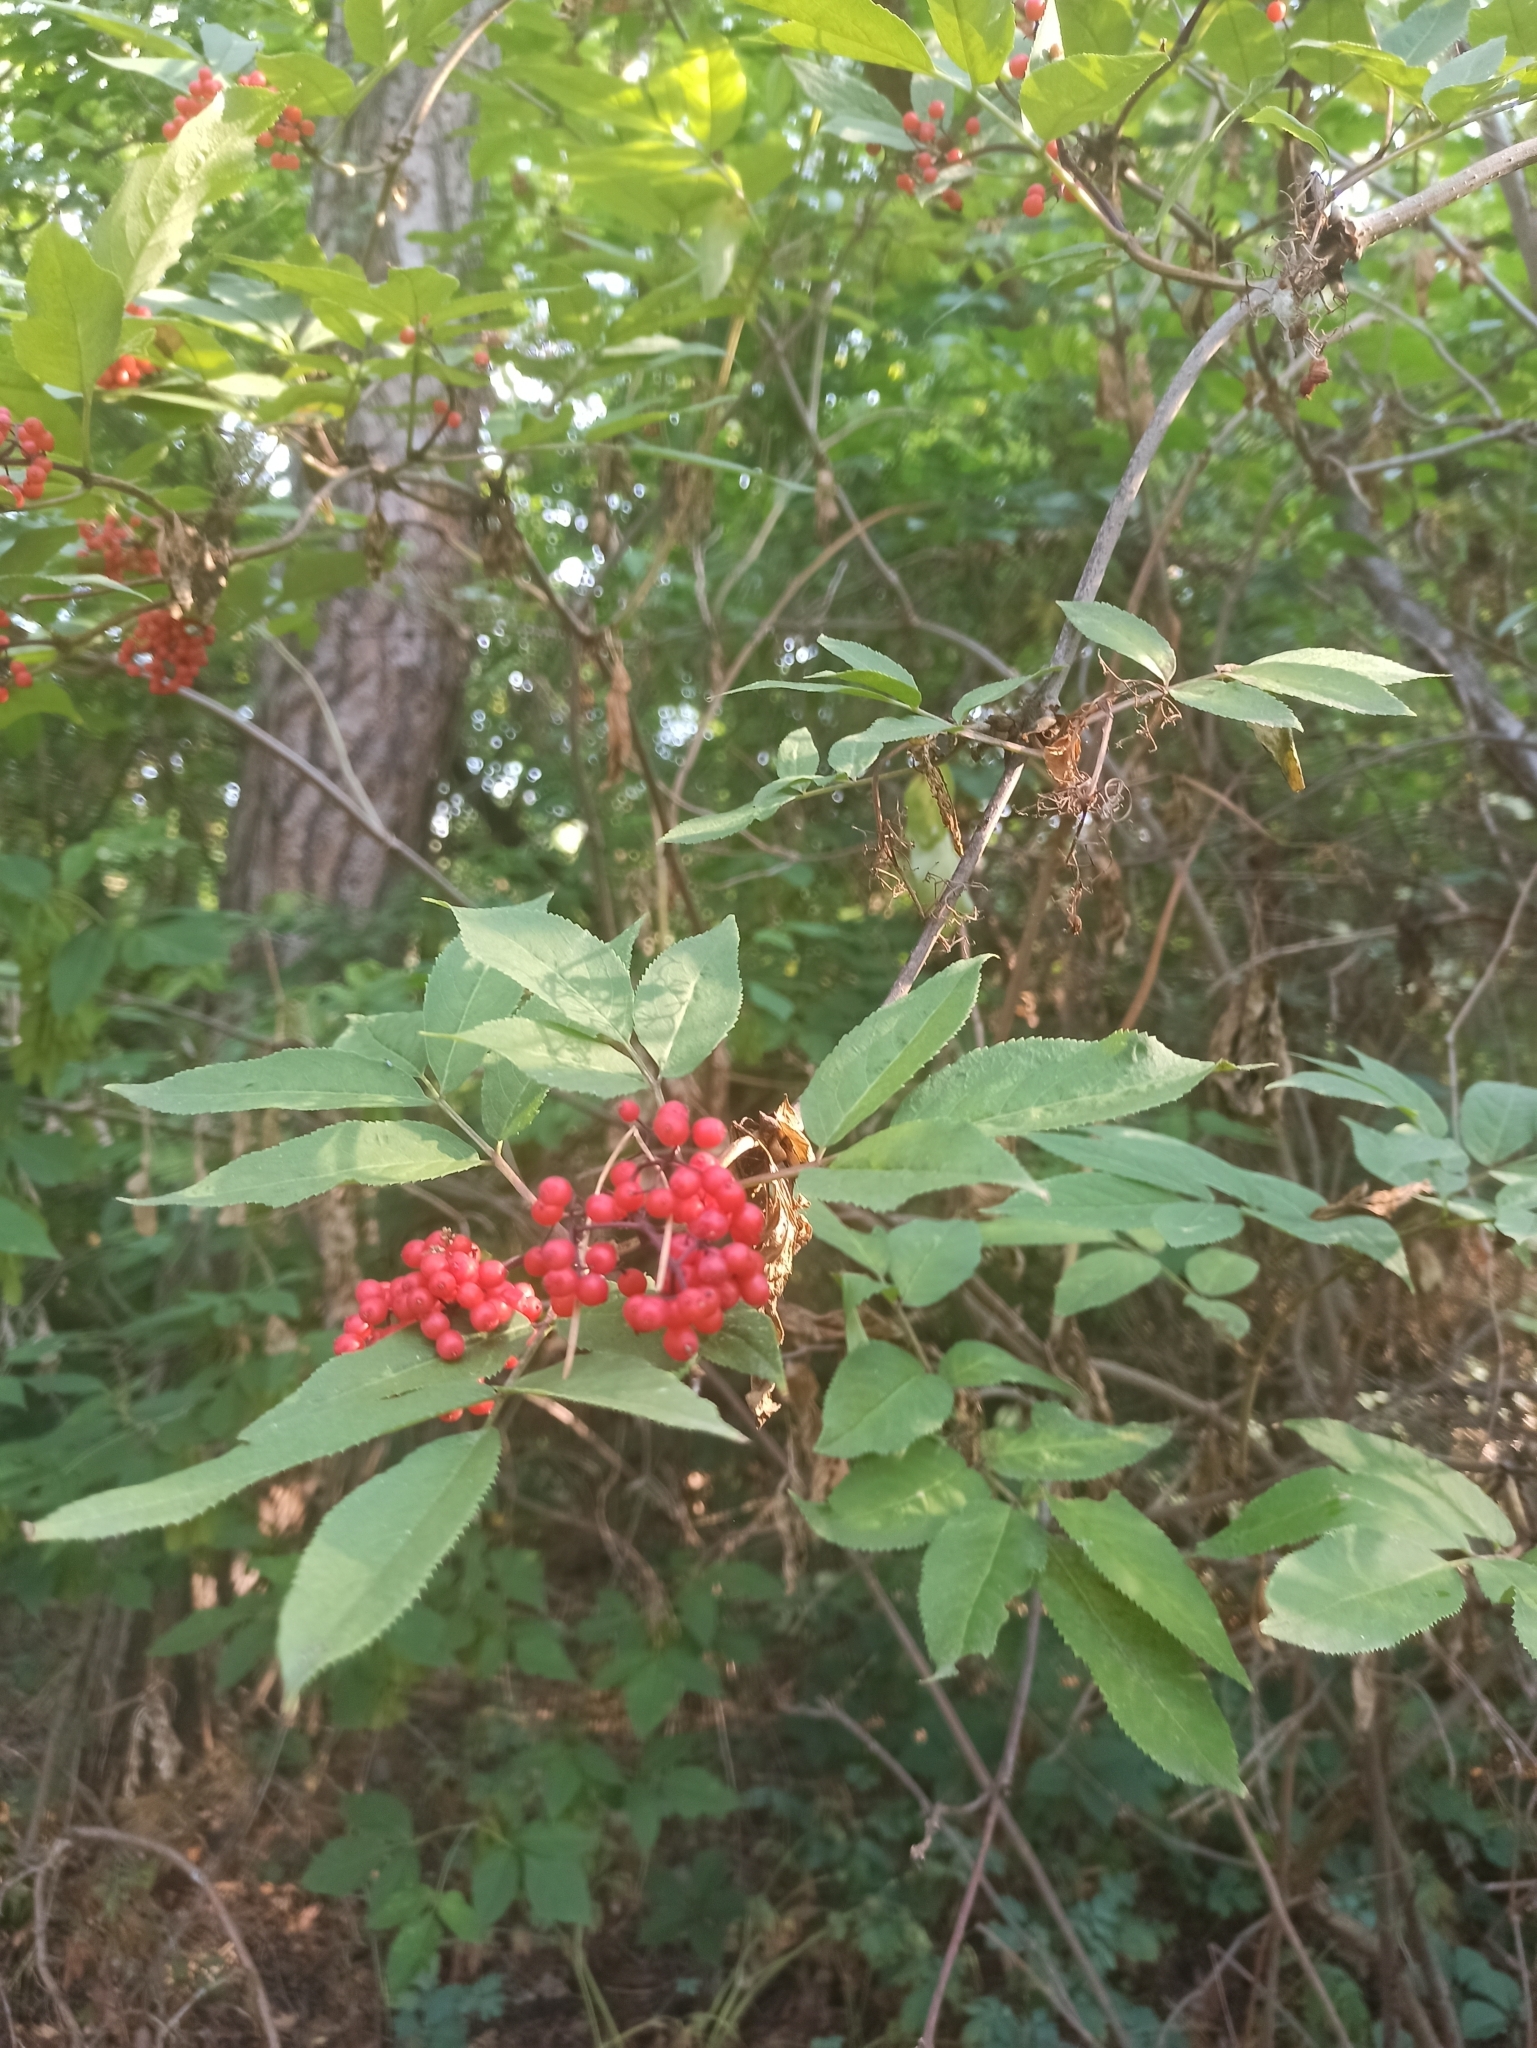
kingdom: Plantae
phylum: Tracheophyta
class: Magnoliopsida
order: Dipsacales
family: Viburnaceae
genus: Sambucus
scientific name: Sambucus racemosa
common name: Red-berried elder
